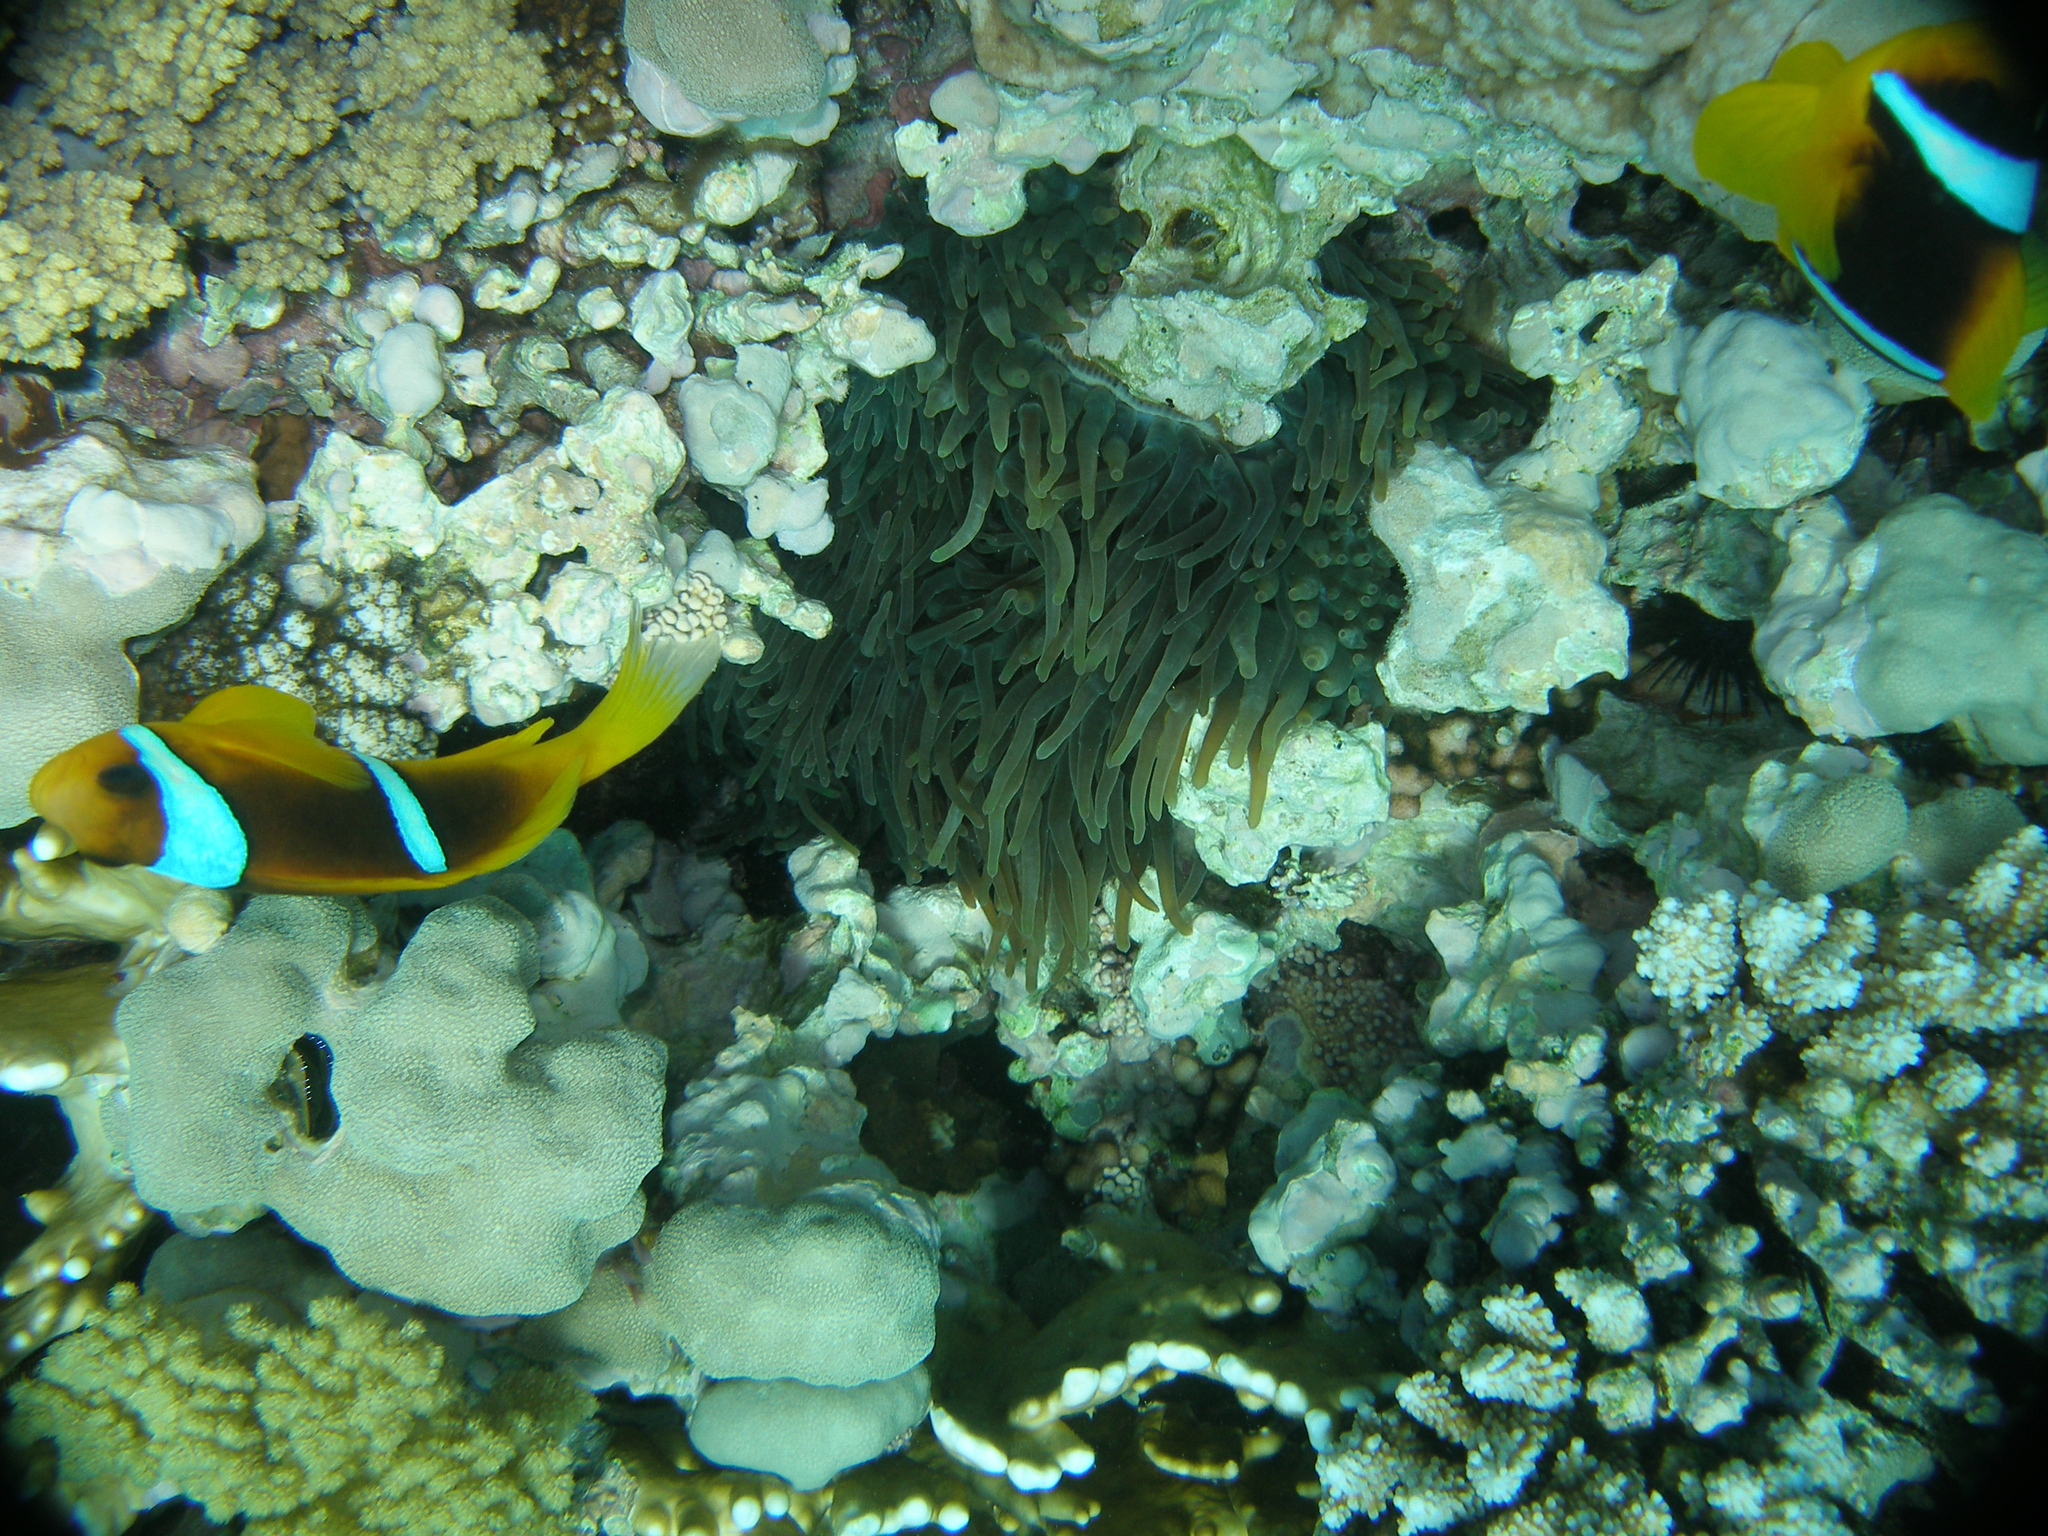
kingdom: Animalia
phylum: Chordata
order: Perciformes
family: Pomacentridae
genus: Amphiprion
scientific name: Amphiprion bicinctus
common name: Two-banded anemonefish
